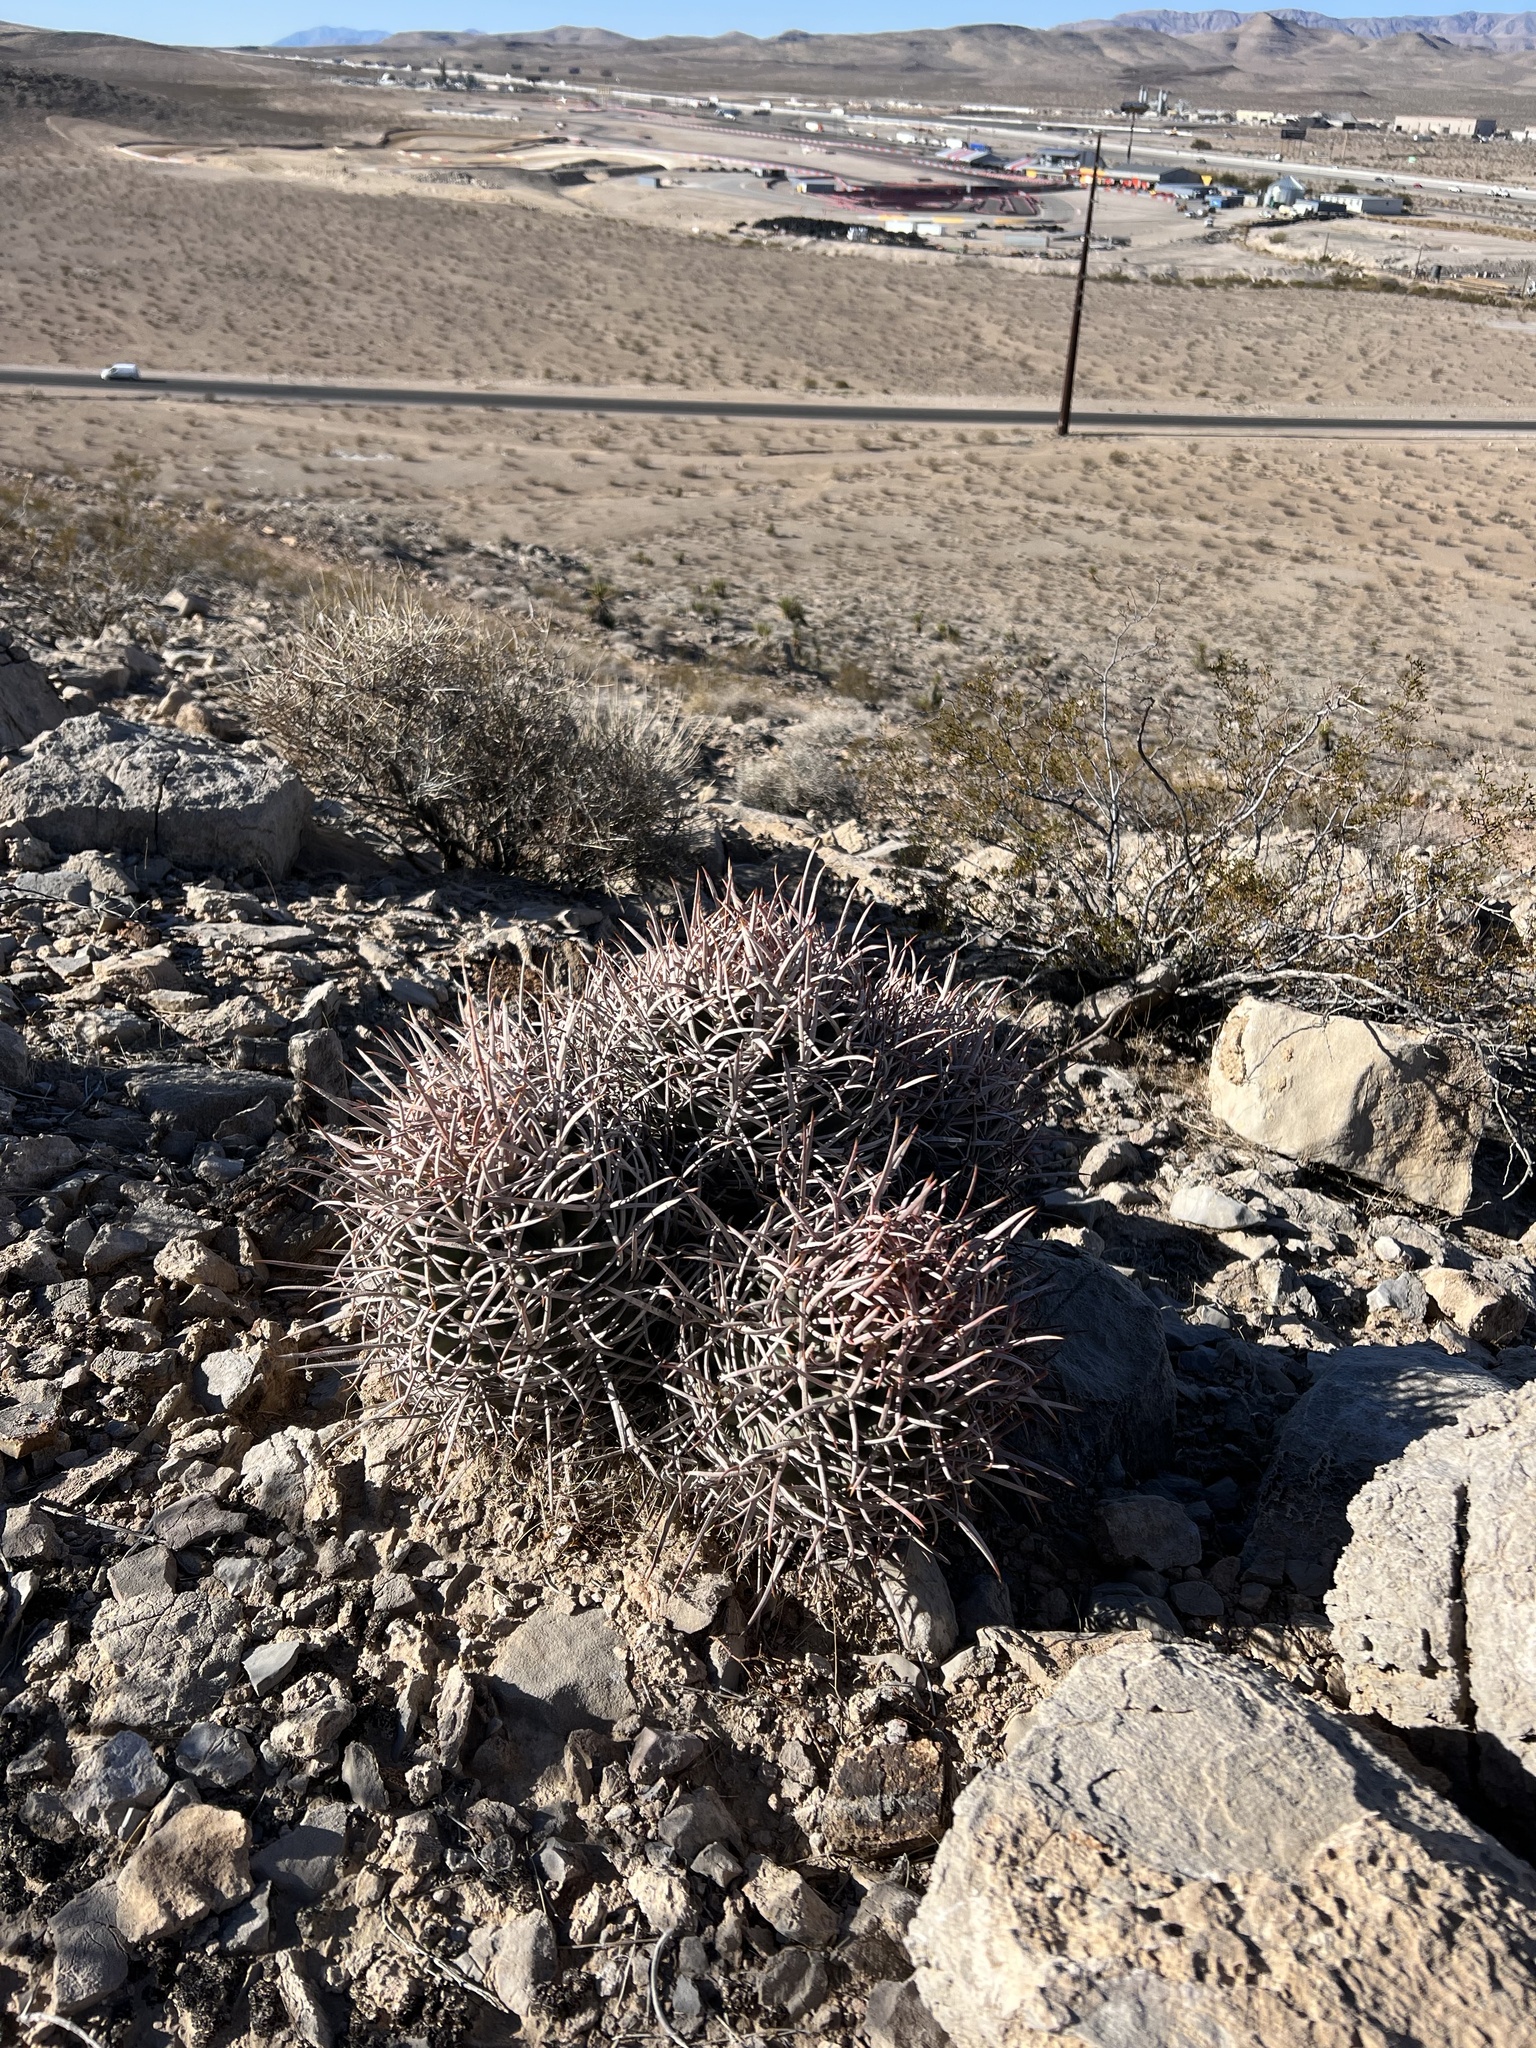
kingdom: Plantae
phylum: Tracheophyta
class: Magnoliopsida
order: Caryophyllales
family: Cactaceae
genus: Echinocactus
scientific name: Echinocactus polycephalus
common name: Cottontop cactus
